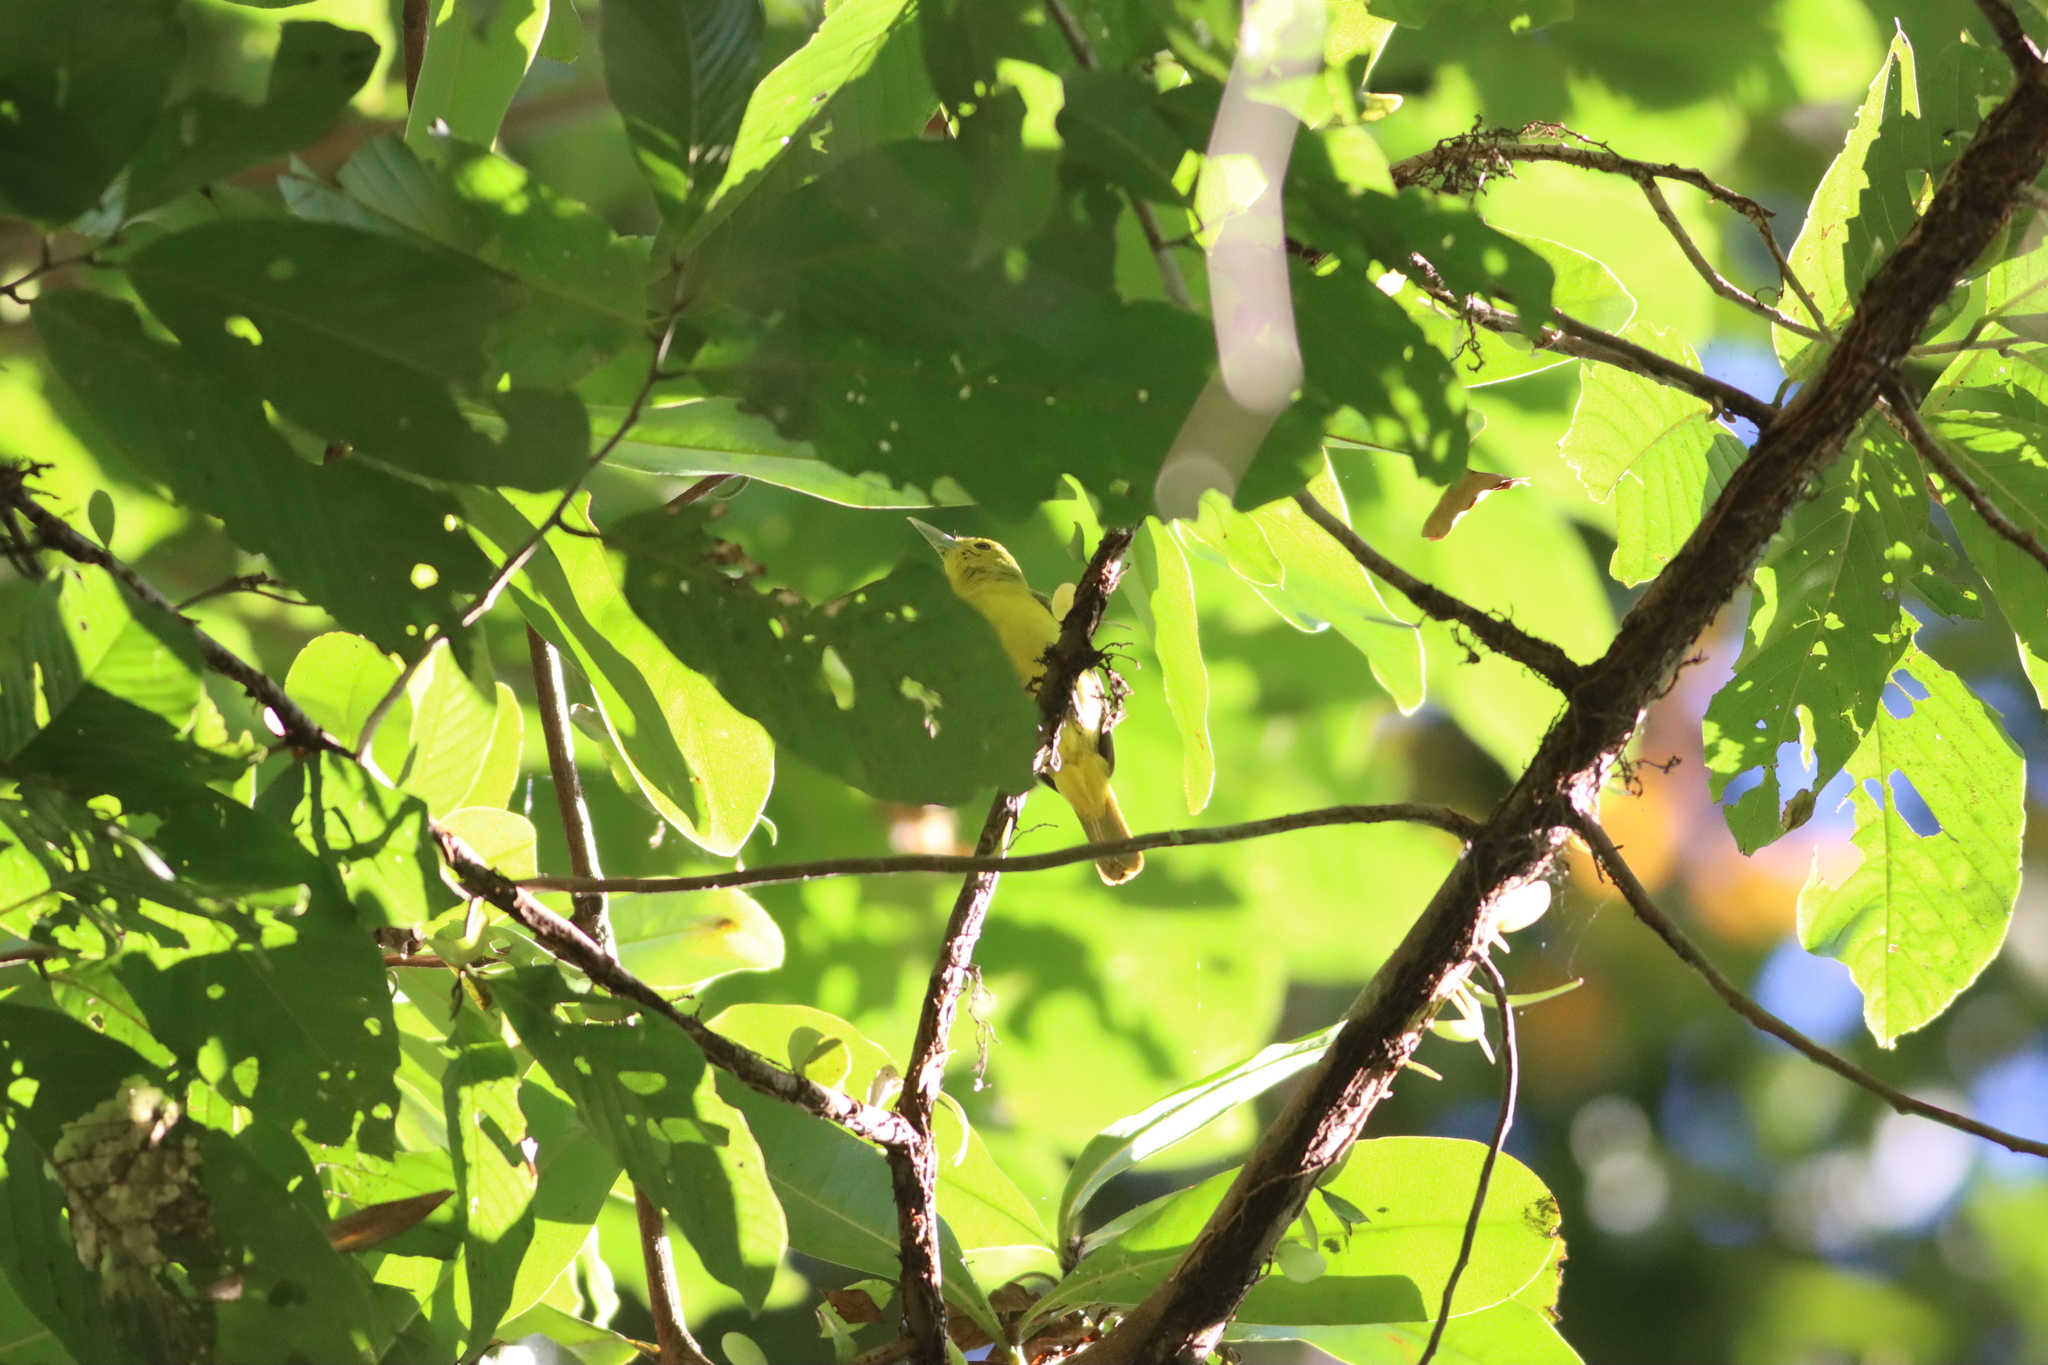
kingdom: Animalia
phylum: Chordata
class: Aves
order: Passeriformes
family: Aegithinidae
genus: Aegithina
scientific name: Aegithina lafresnayei
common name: Great iora
